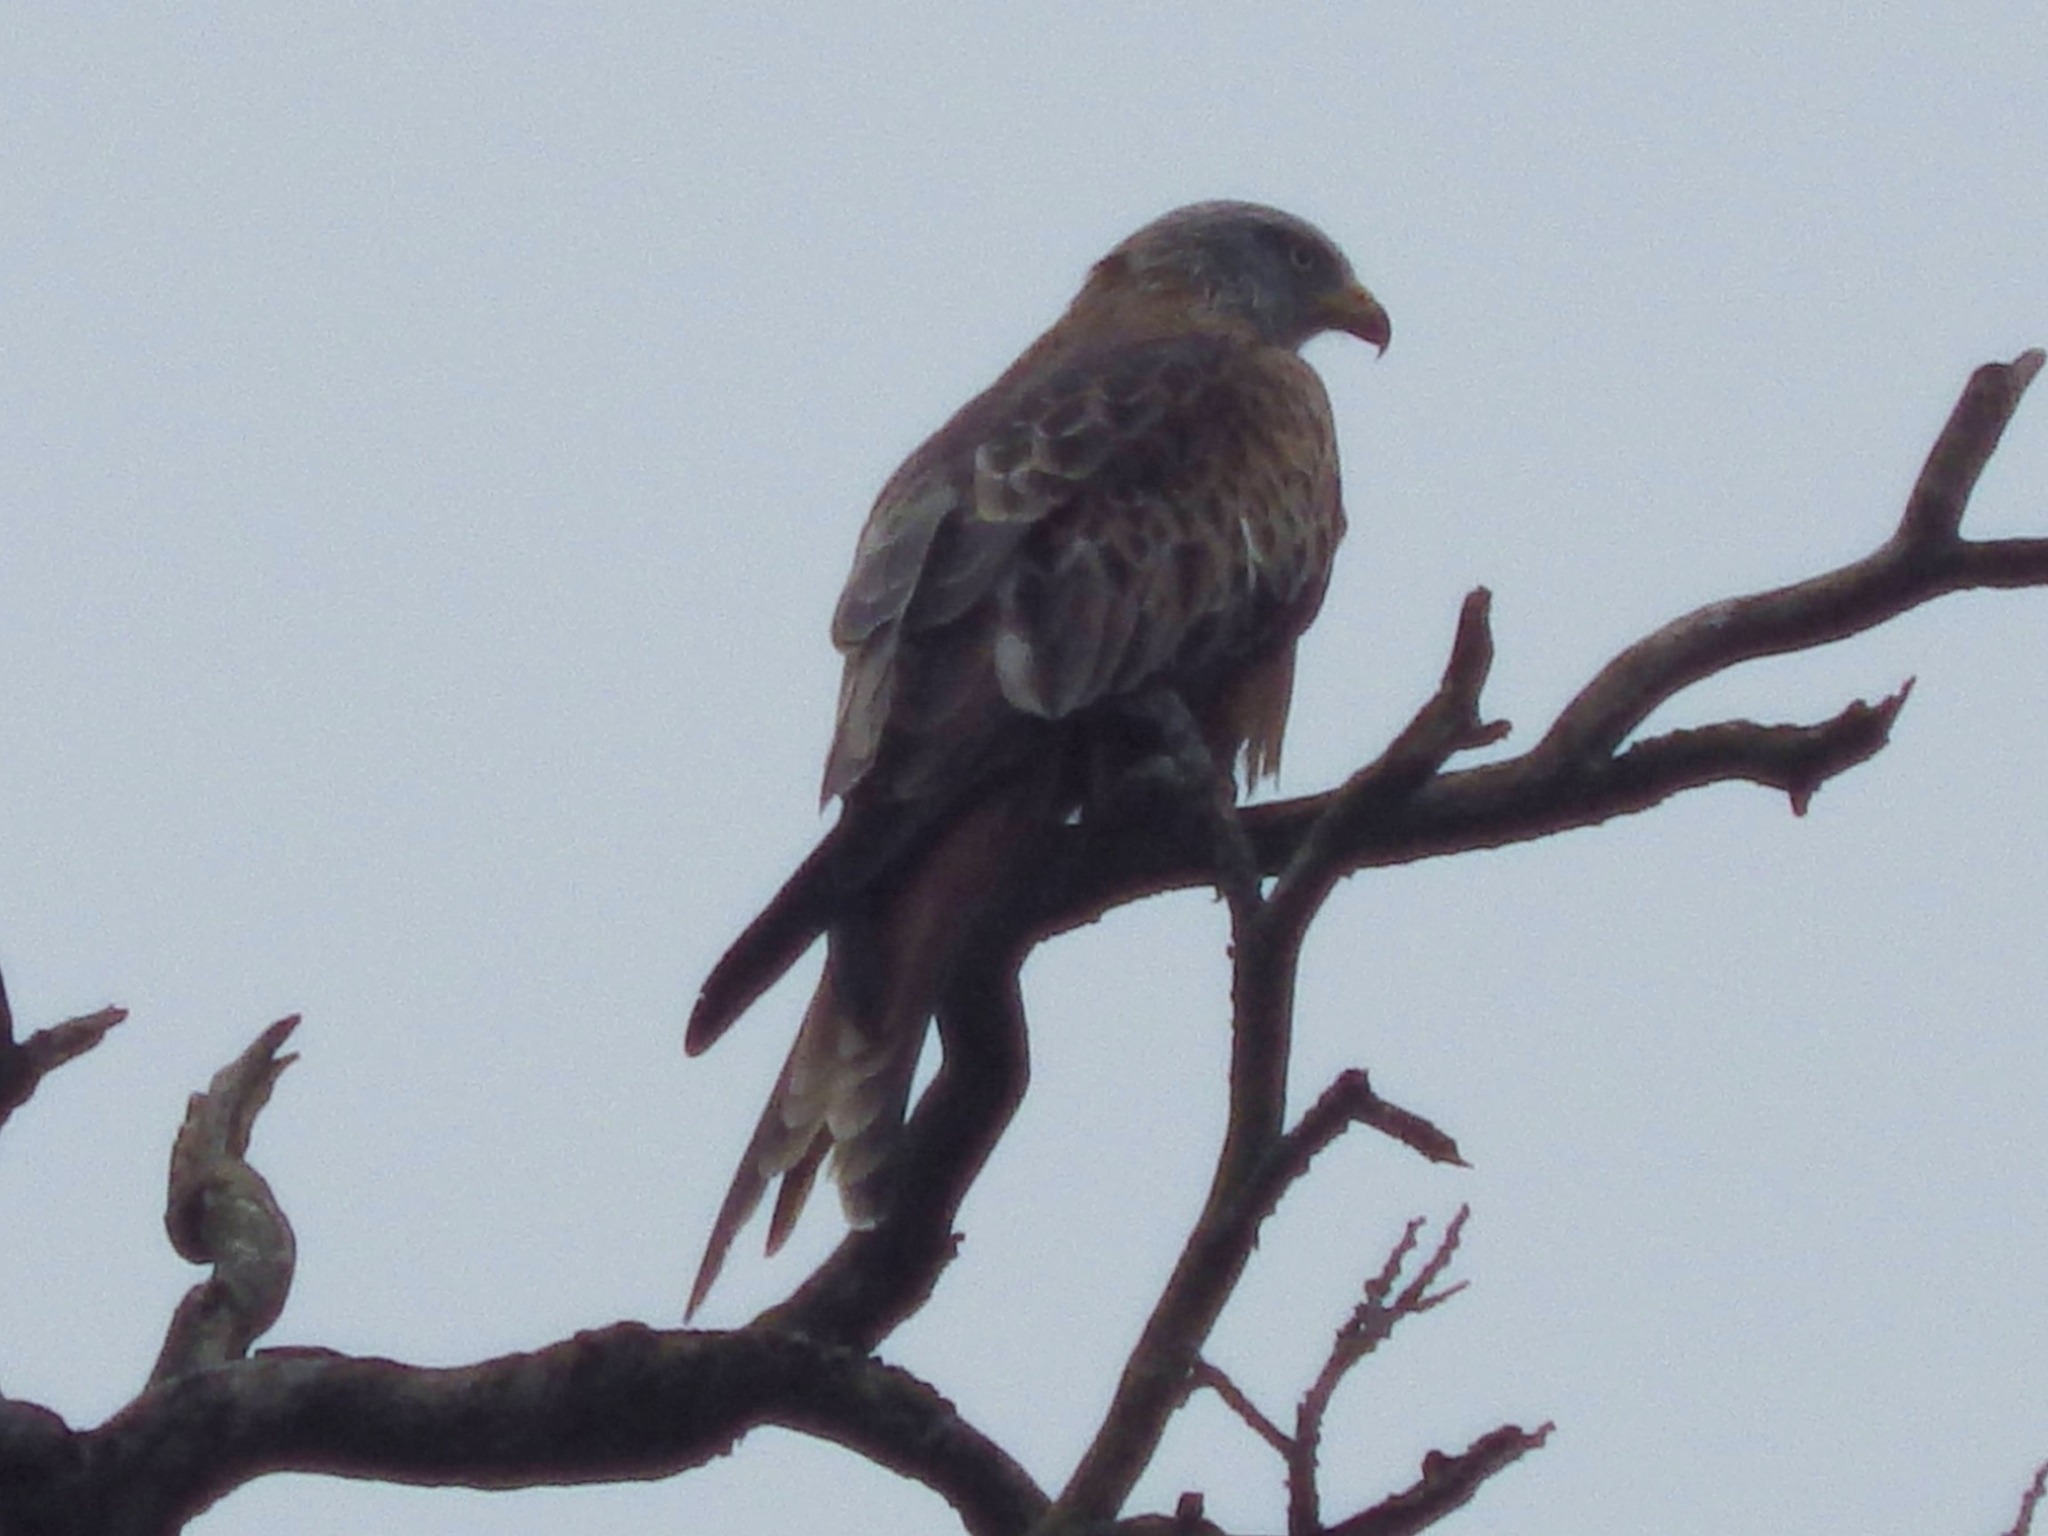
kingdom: Animalia
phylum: Chordata
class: Aves
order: Accipitriformes
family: Accipitridae
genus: Milvus
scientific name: Milvus milvus
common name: Red kite
